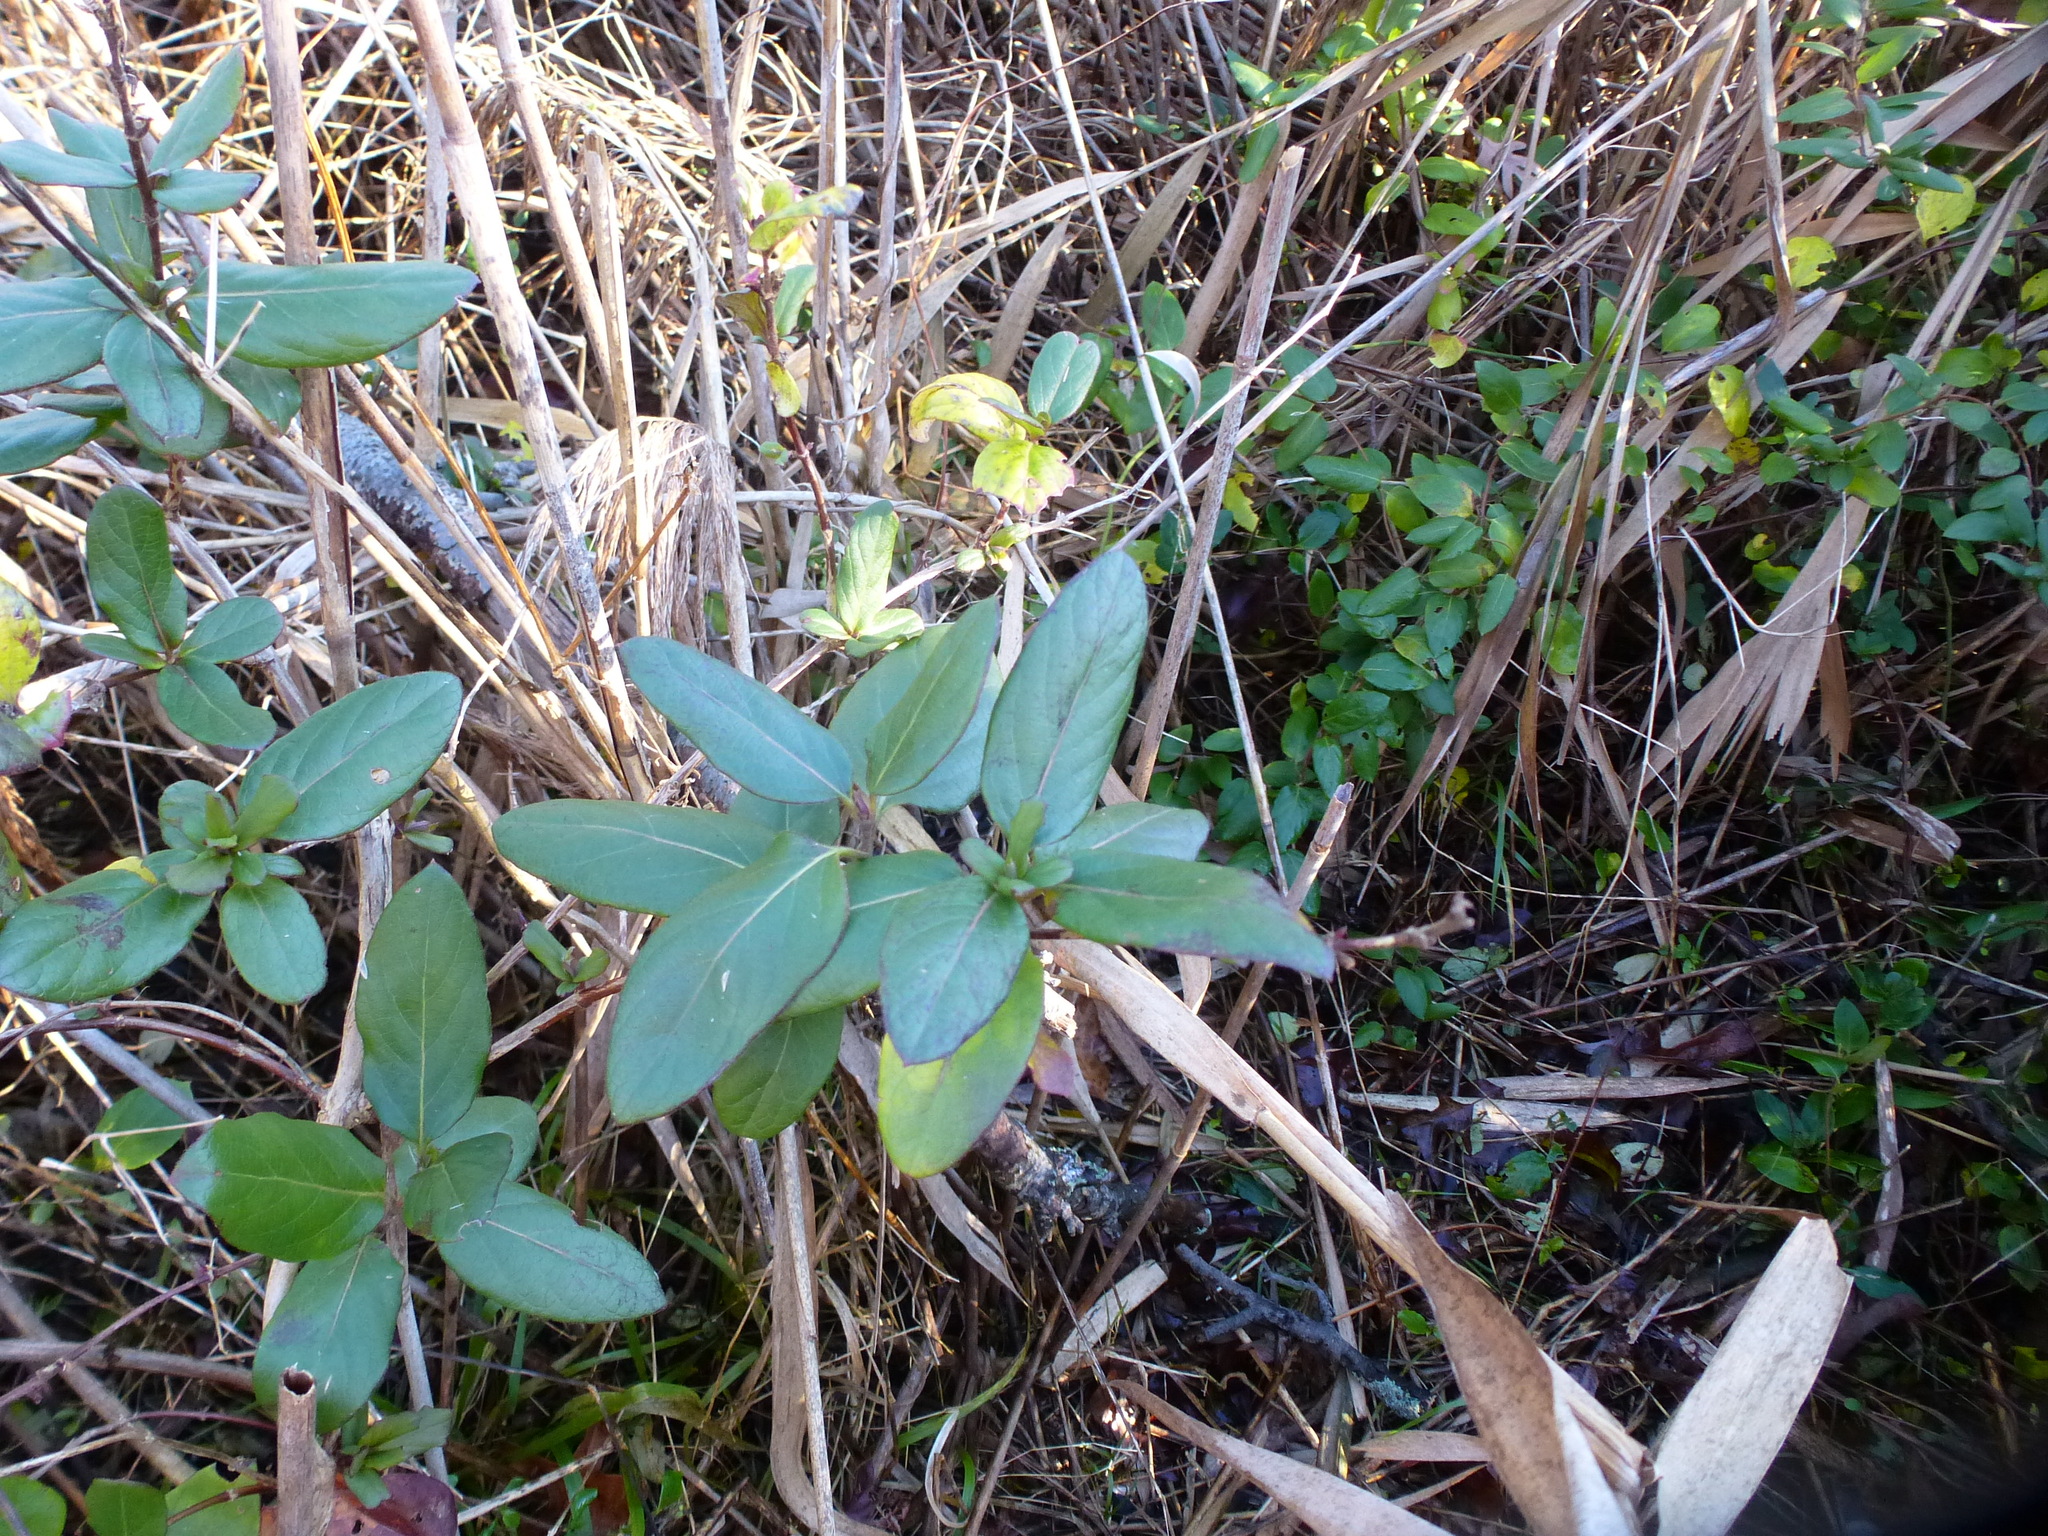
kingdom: Plantae
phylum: Tracheophyta
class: Magnoliopsida
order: Dipsacales
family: Caprifoliaceae
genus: Lonicera
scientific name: Lonicera japonica
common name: Japanese honeysuckle
